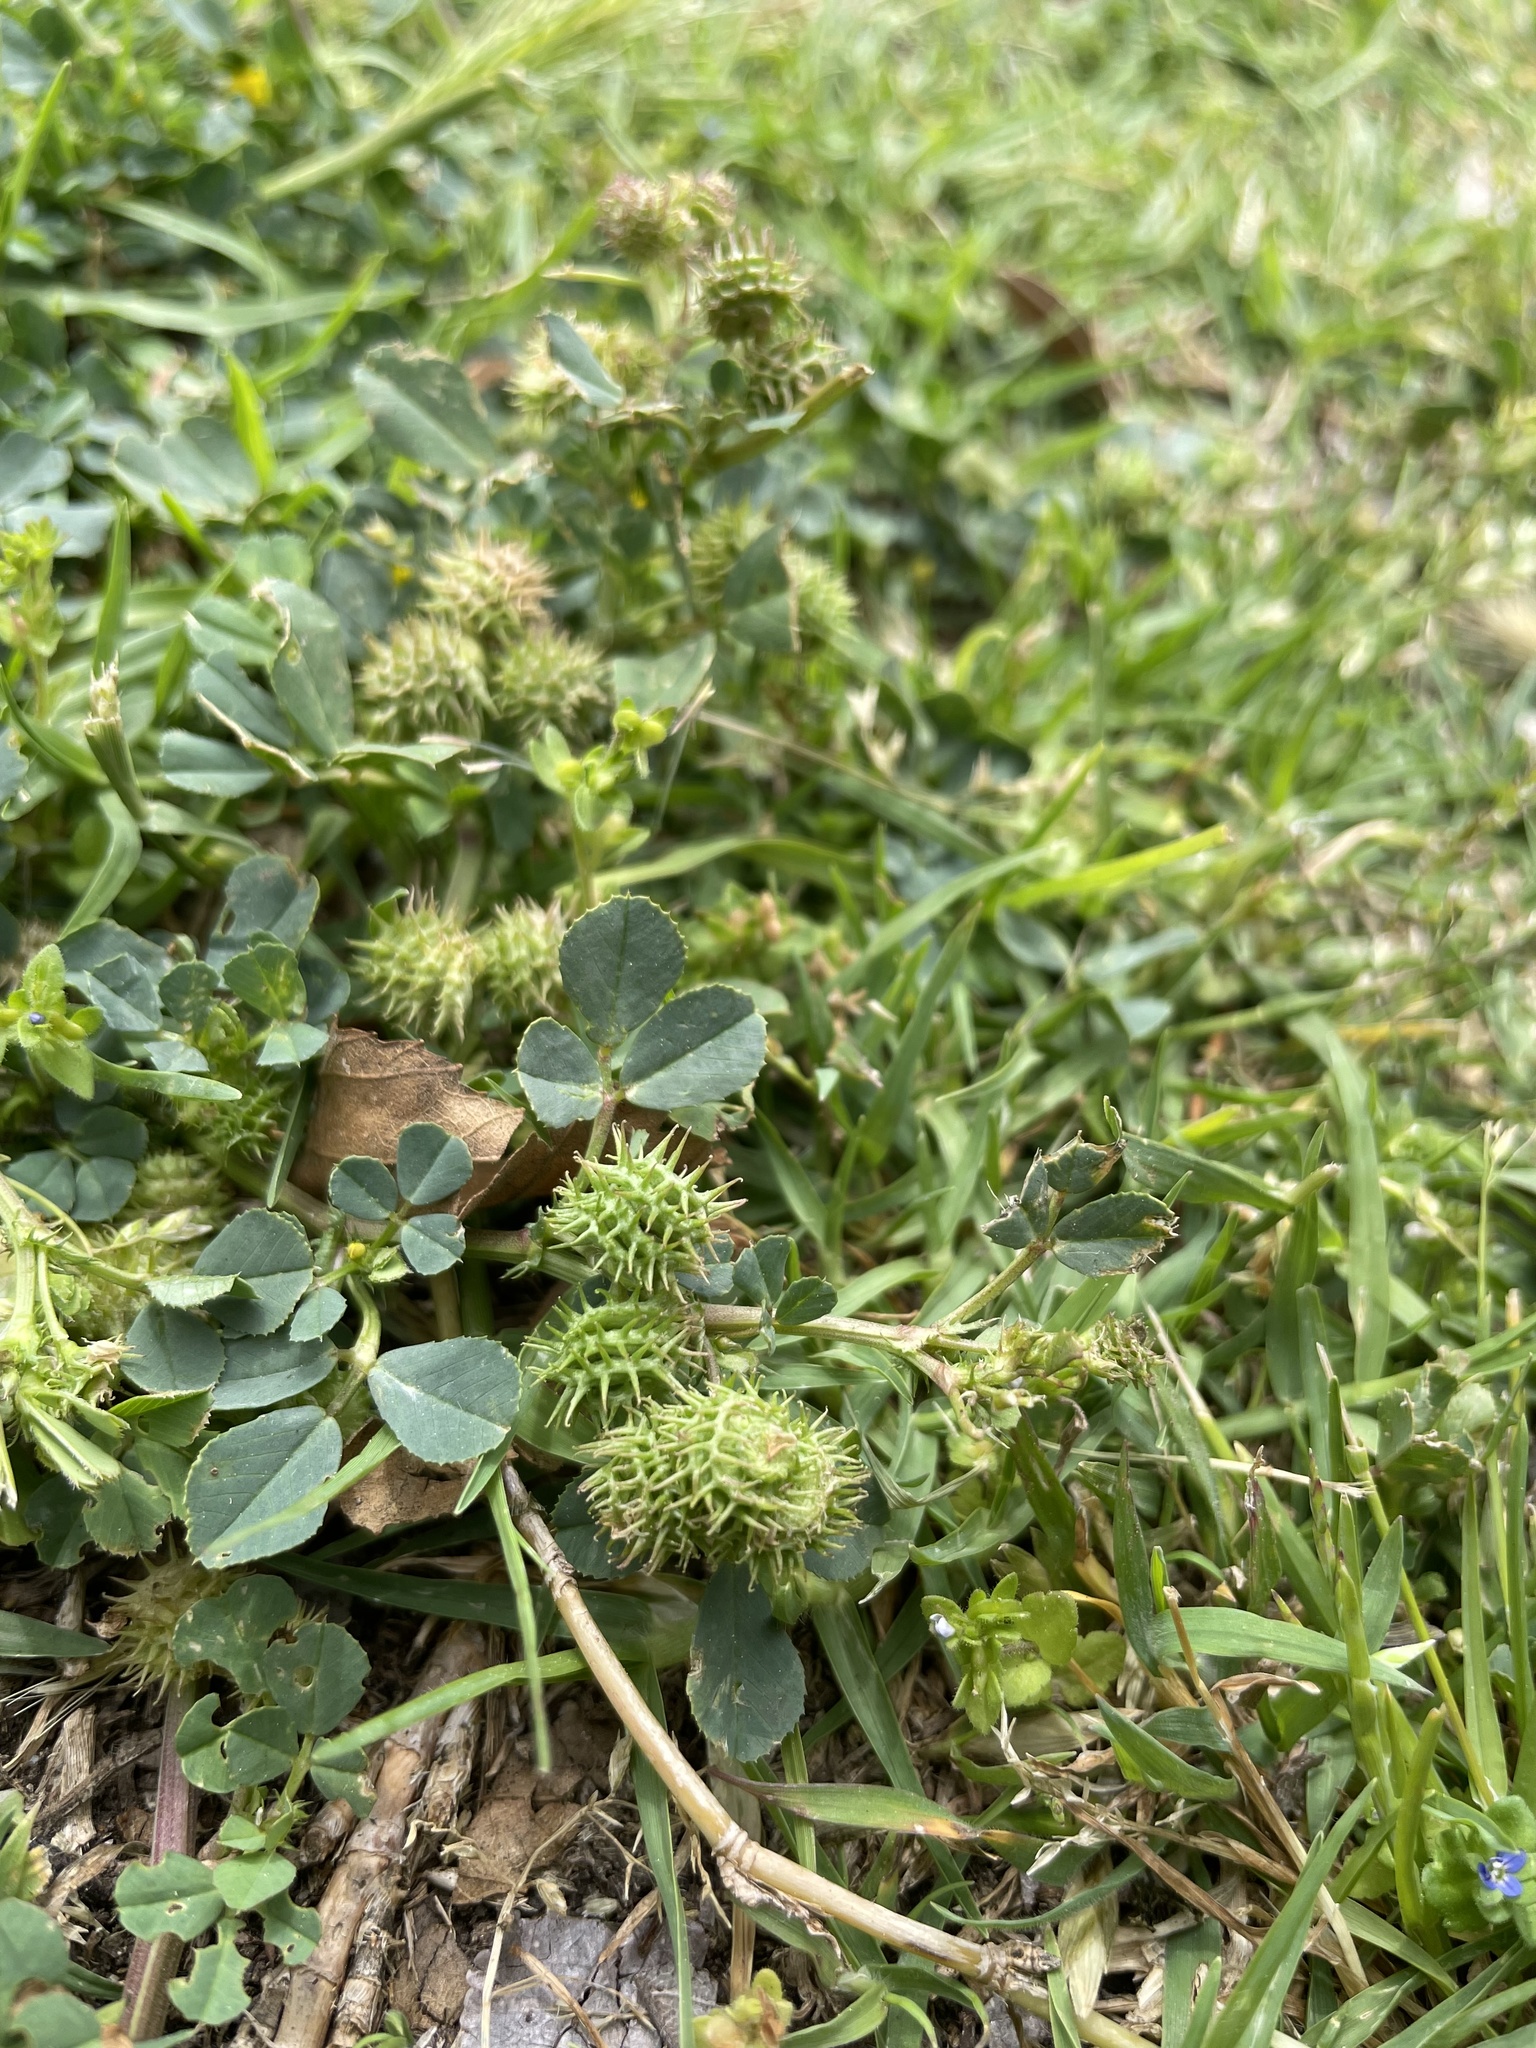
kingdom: Plantae
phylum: Tracheophyta
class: Magnoliopsida
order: Fabales
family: Fabaceae
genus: Medicago
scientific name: Medicago polymorpha
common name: Burclover
